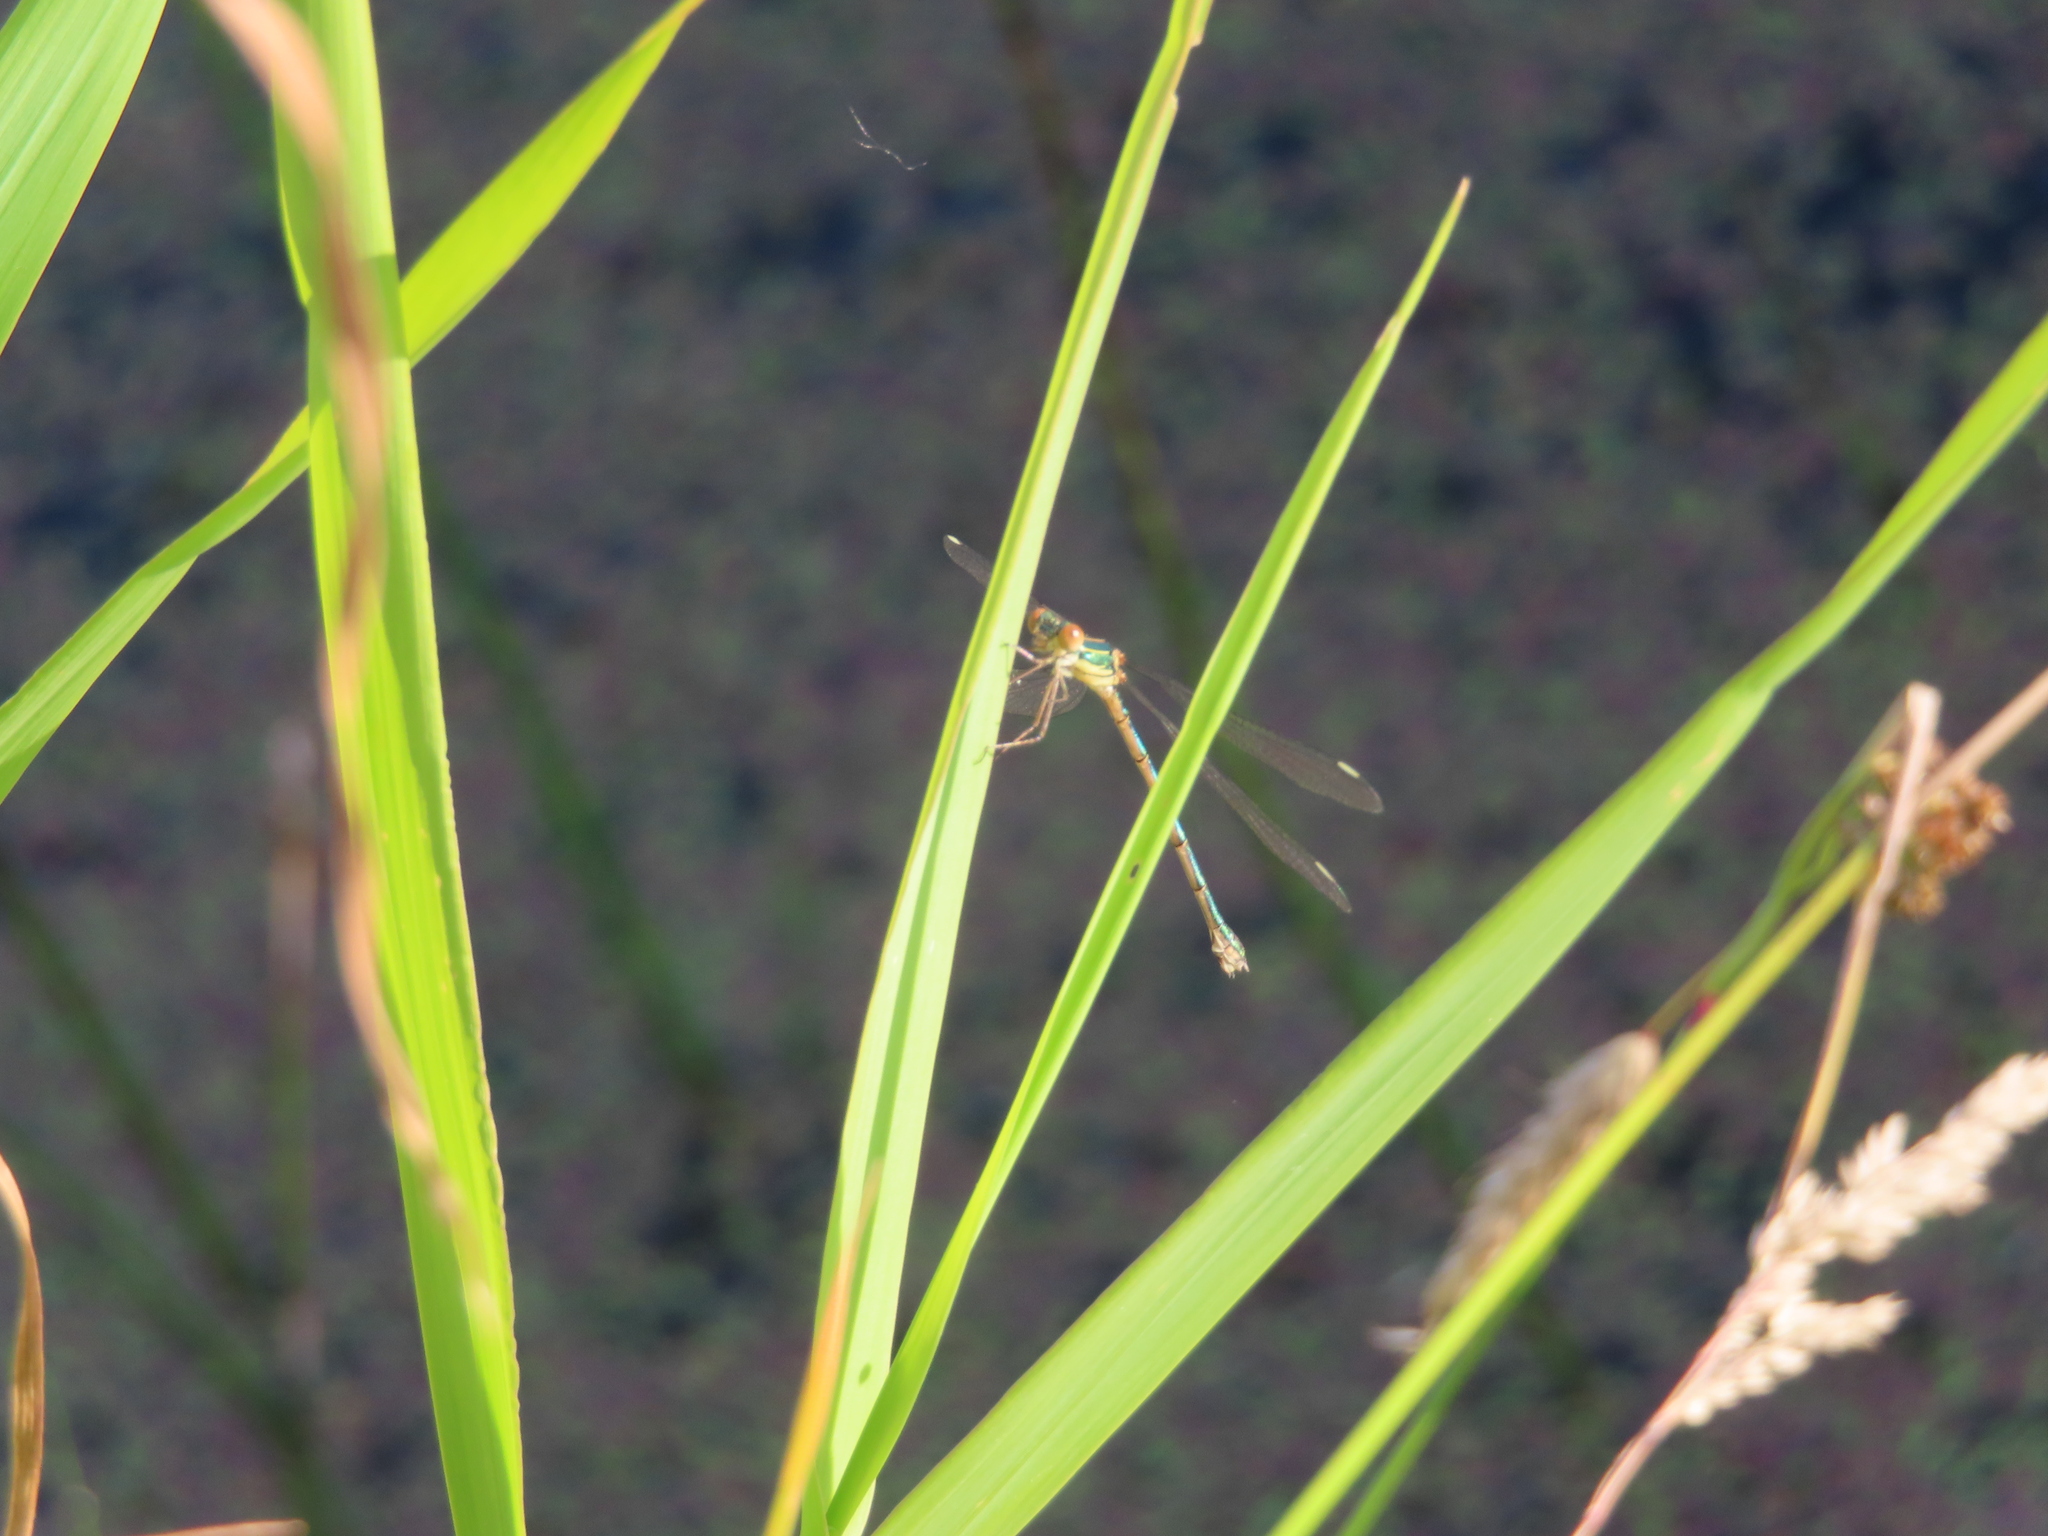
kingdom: Animalia
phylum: Arthropoda
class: Insecta
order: Odonata
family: Lestidae
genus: Chalcolestes
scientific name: Chalcolestes viridis
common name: Green emerald damselfly
